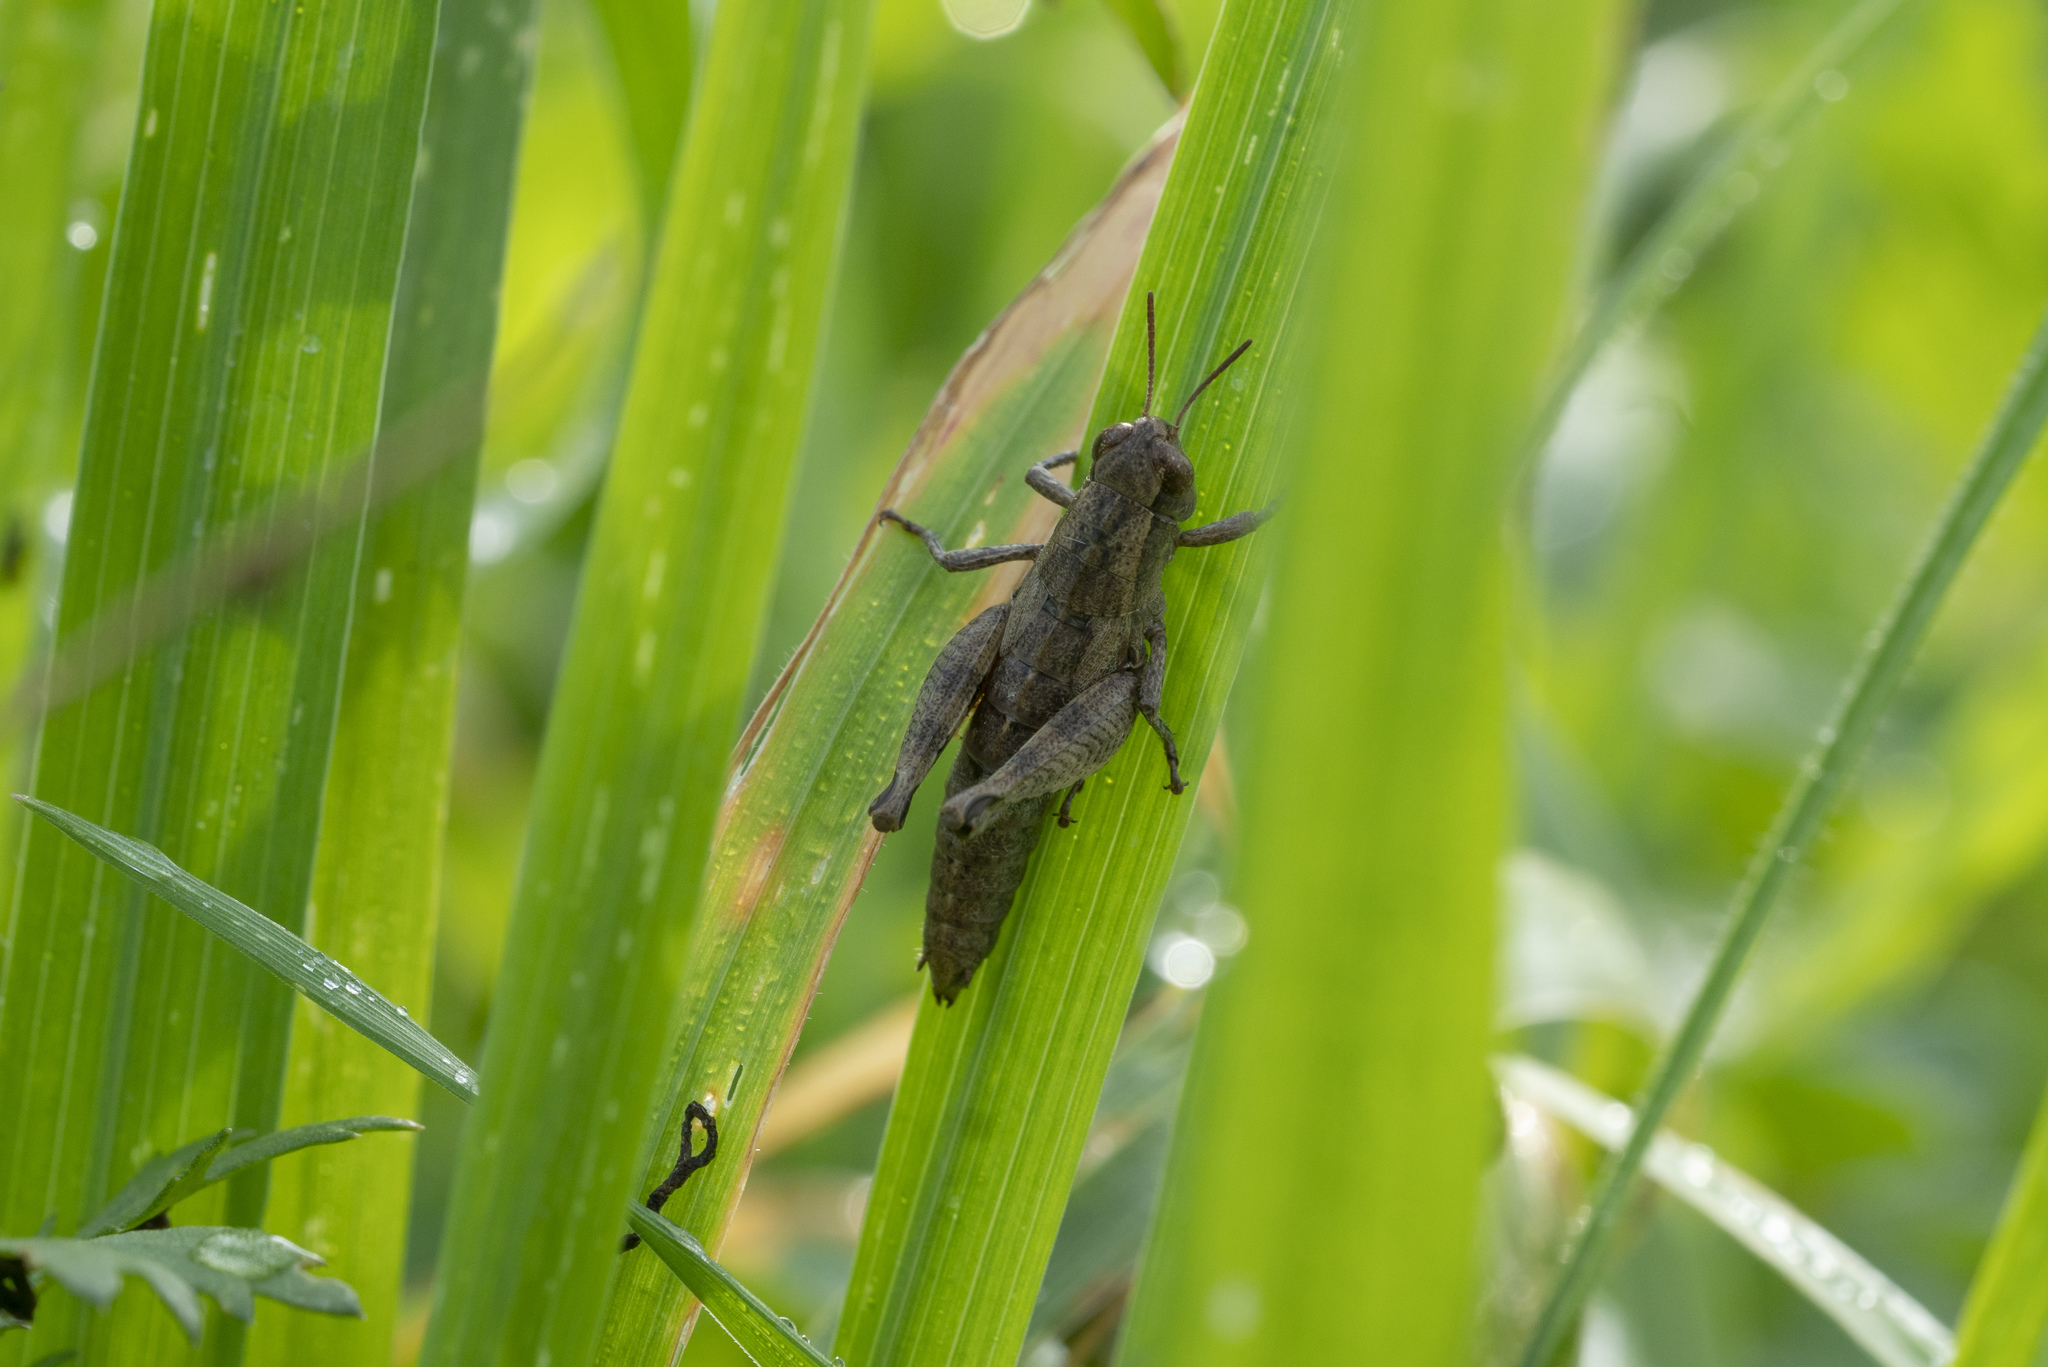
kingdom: Animalia
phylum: Arthropoda
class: Insecta
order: Orthoptera
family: Acrididae
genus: Pezotettix
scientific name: Pezotettix lagoi
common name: Rhodes maquis grasshopper
